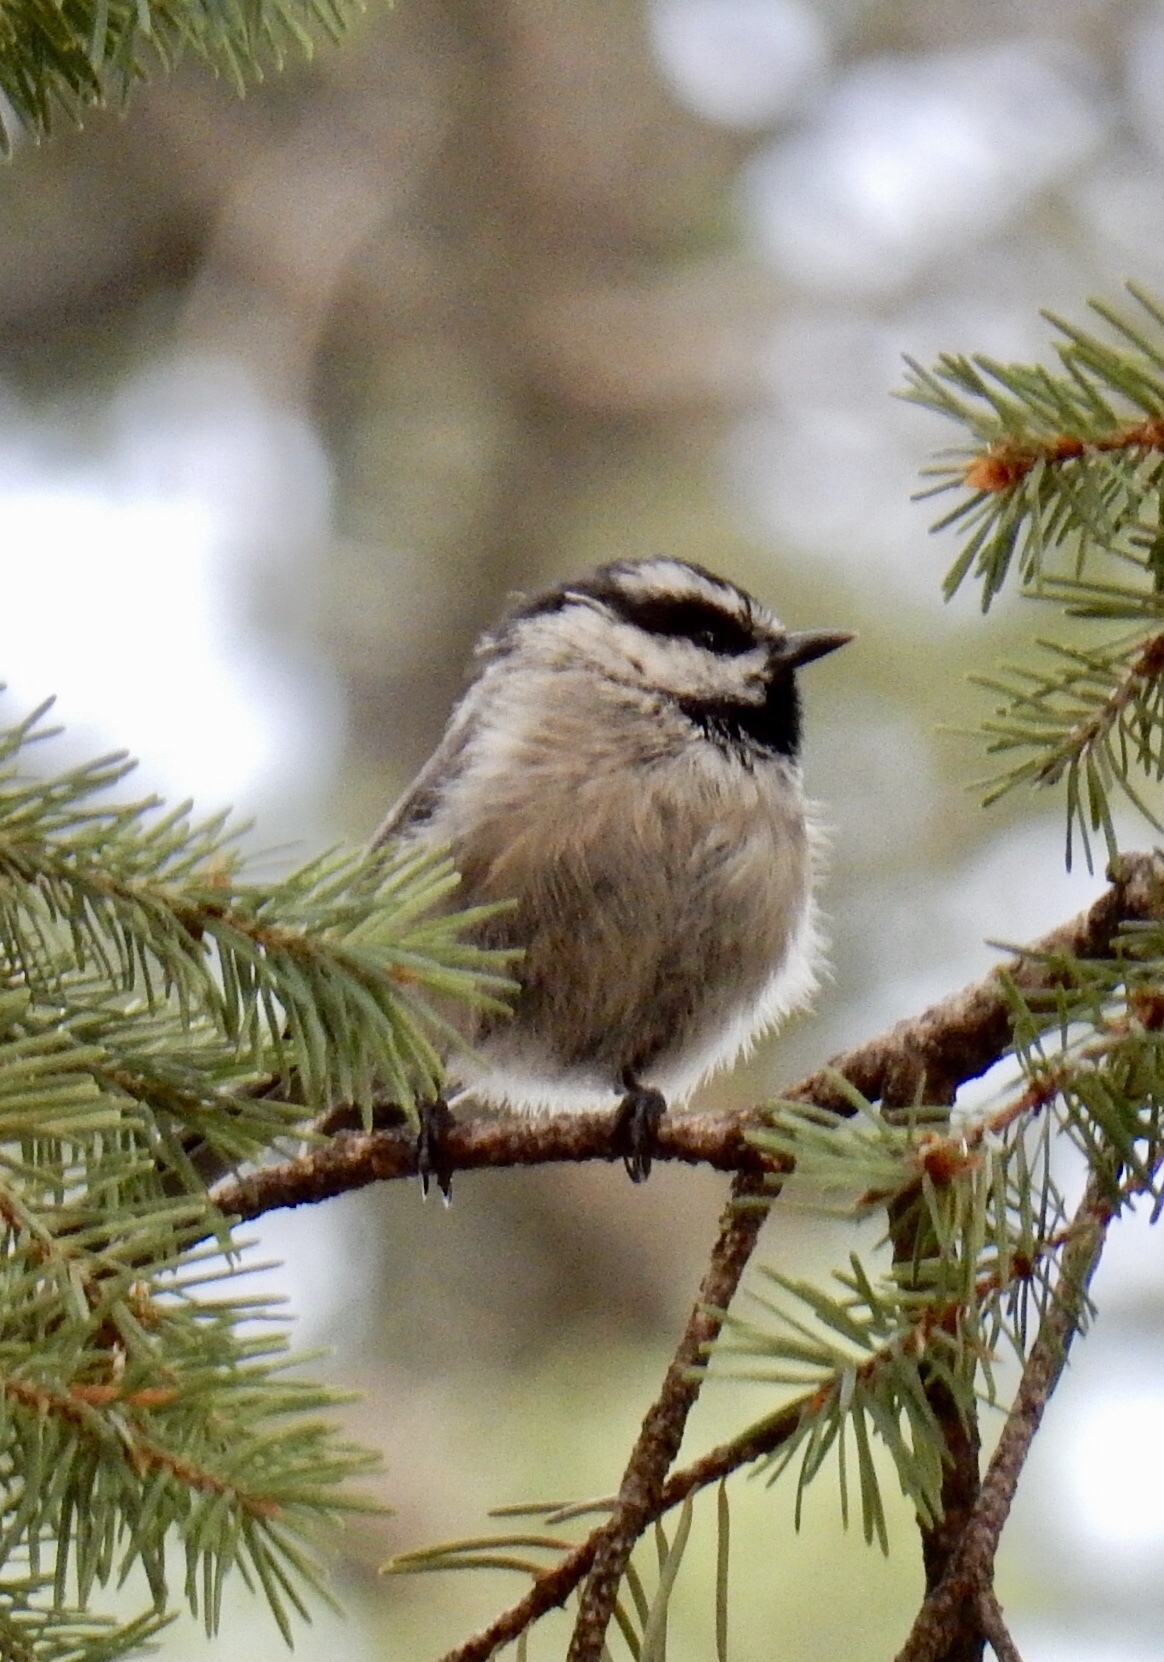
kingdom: Animalia
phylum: Chordata
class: Aves
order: Passeriformes
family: Paridae
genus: Poecile
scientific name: Poecile gambeli
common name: Mountain chickadee
